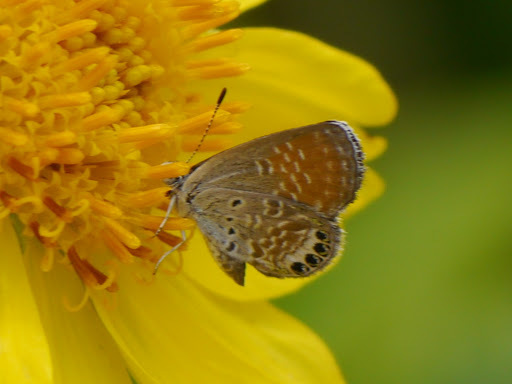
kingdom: Animalia
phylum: Arthropoda
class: Insecta
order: Lepidoptera
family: Lycaenidae
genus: Brephidium
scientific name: Brephidium exilis
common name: Pygmy blue
